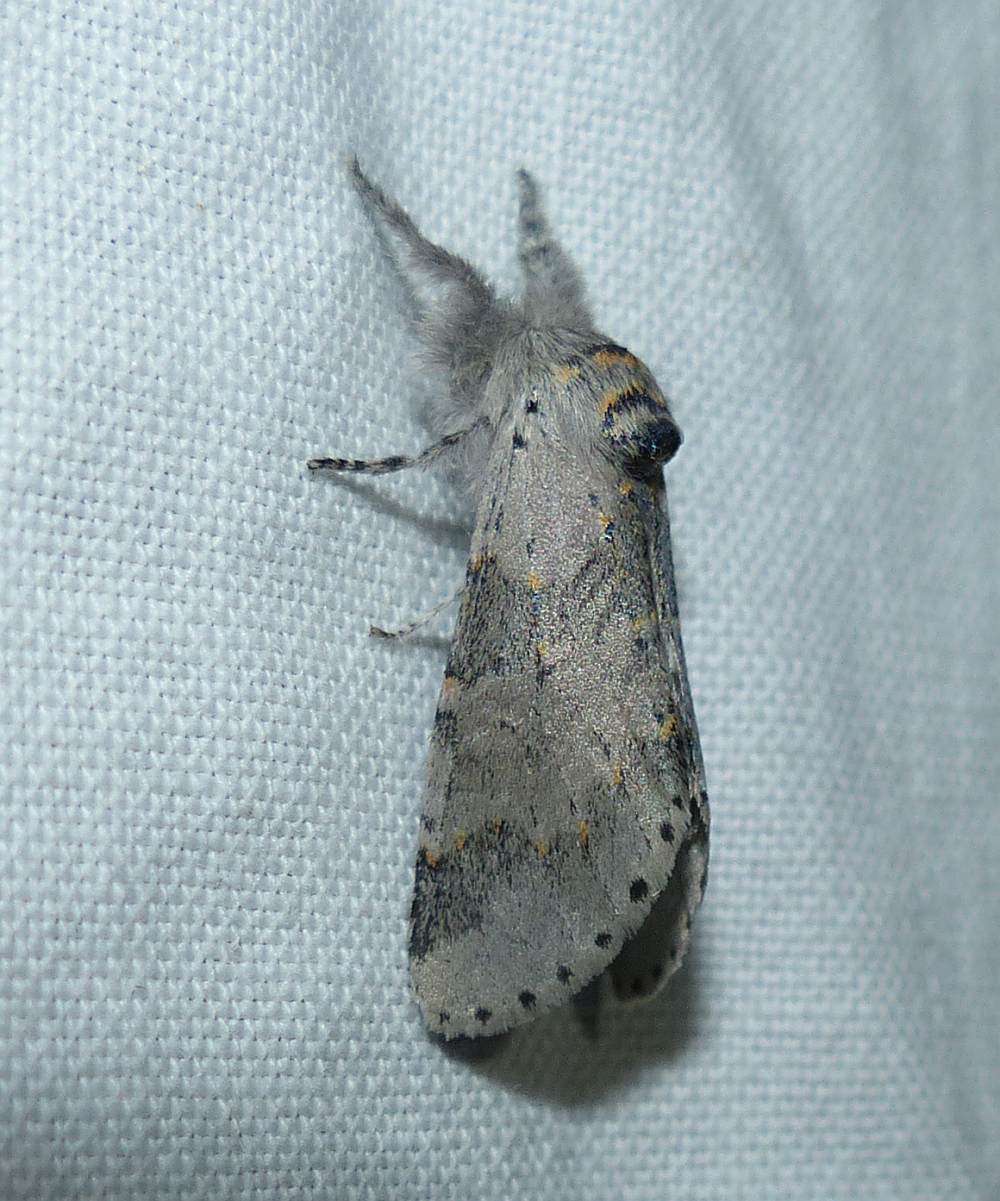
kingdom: Animalia
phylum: Arthropoda
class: Insecta
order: Lepidoptera
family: Notodontidae
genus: Furcula
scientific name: Furcula cinerea
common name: Gray furcula
